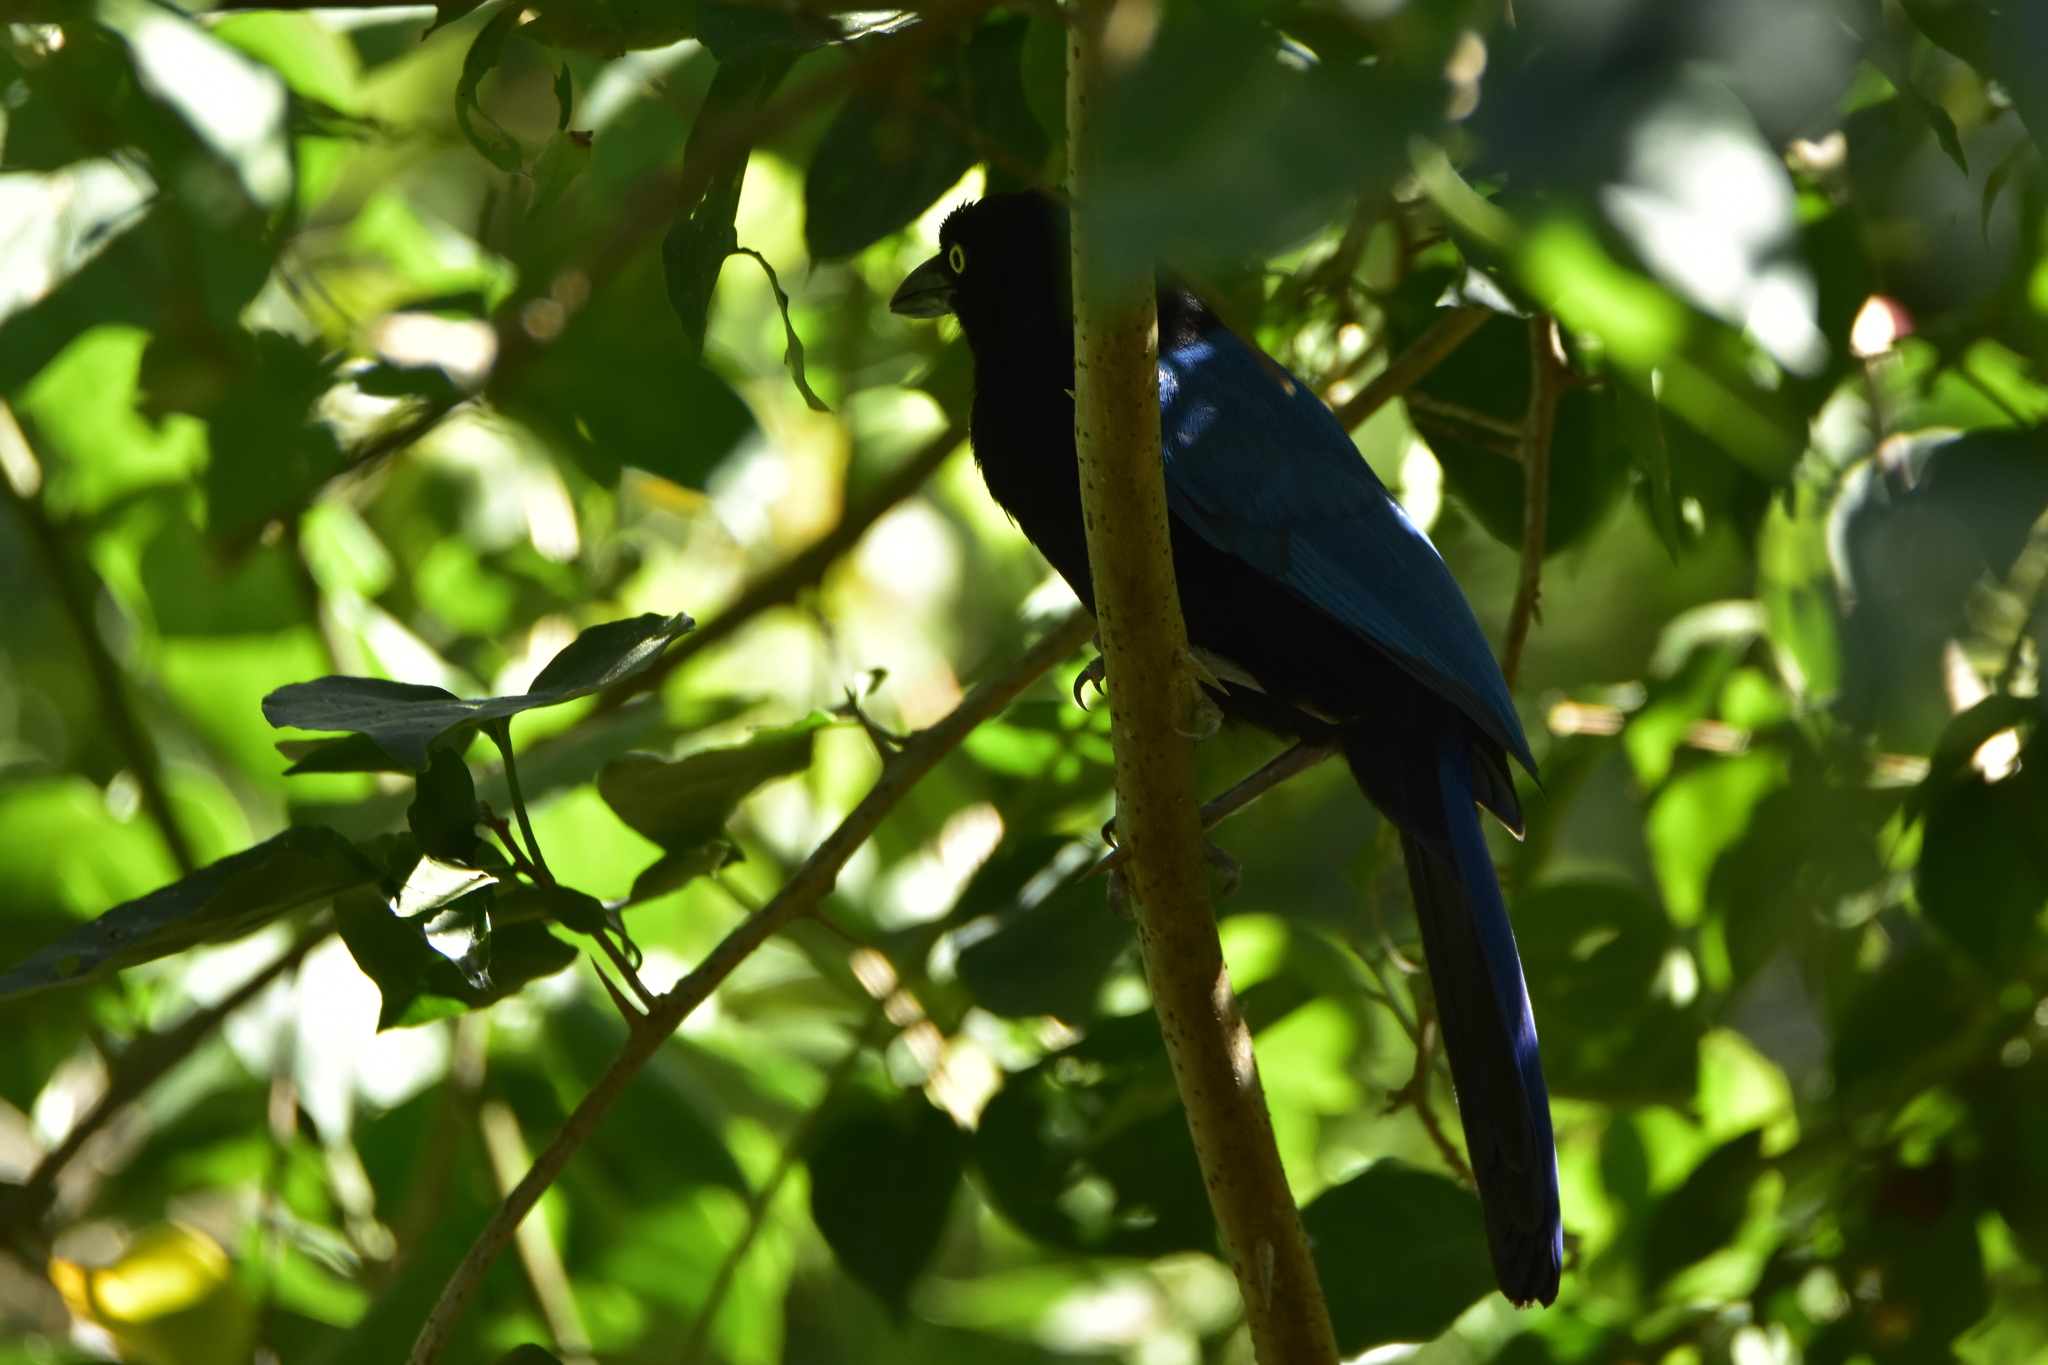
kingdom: Animalia
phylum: Chordata
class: Aves
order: Passeriformes
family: Corvidae
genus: Cyanocorax
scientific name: Cyanocorax sanblasianus
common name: San blas jay
